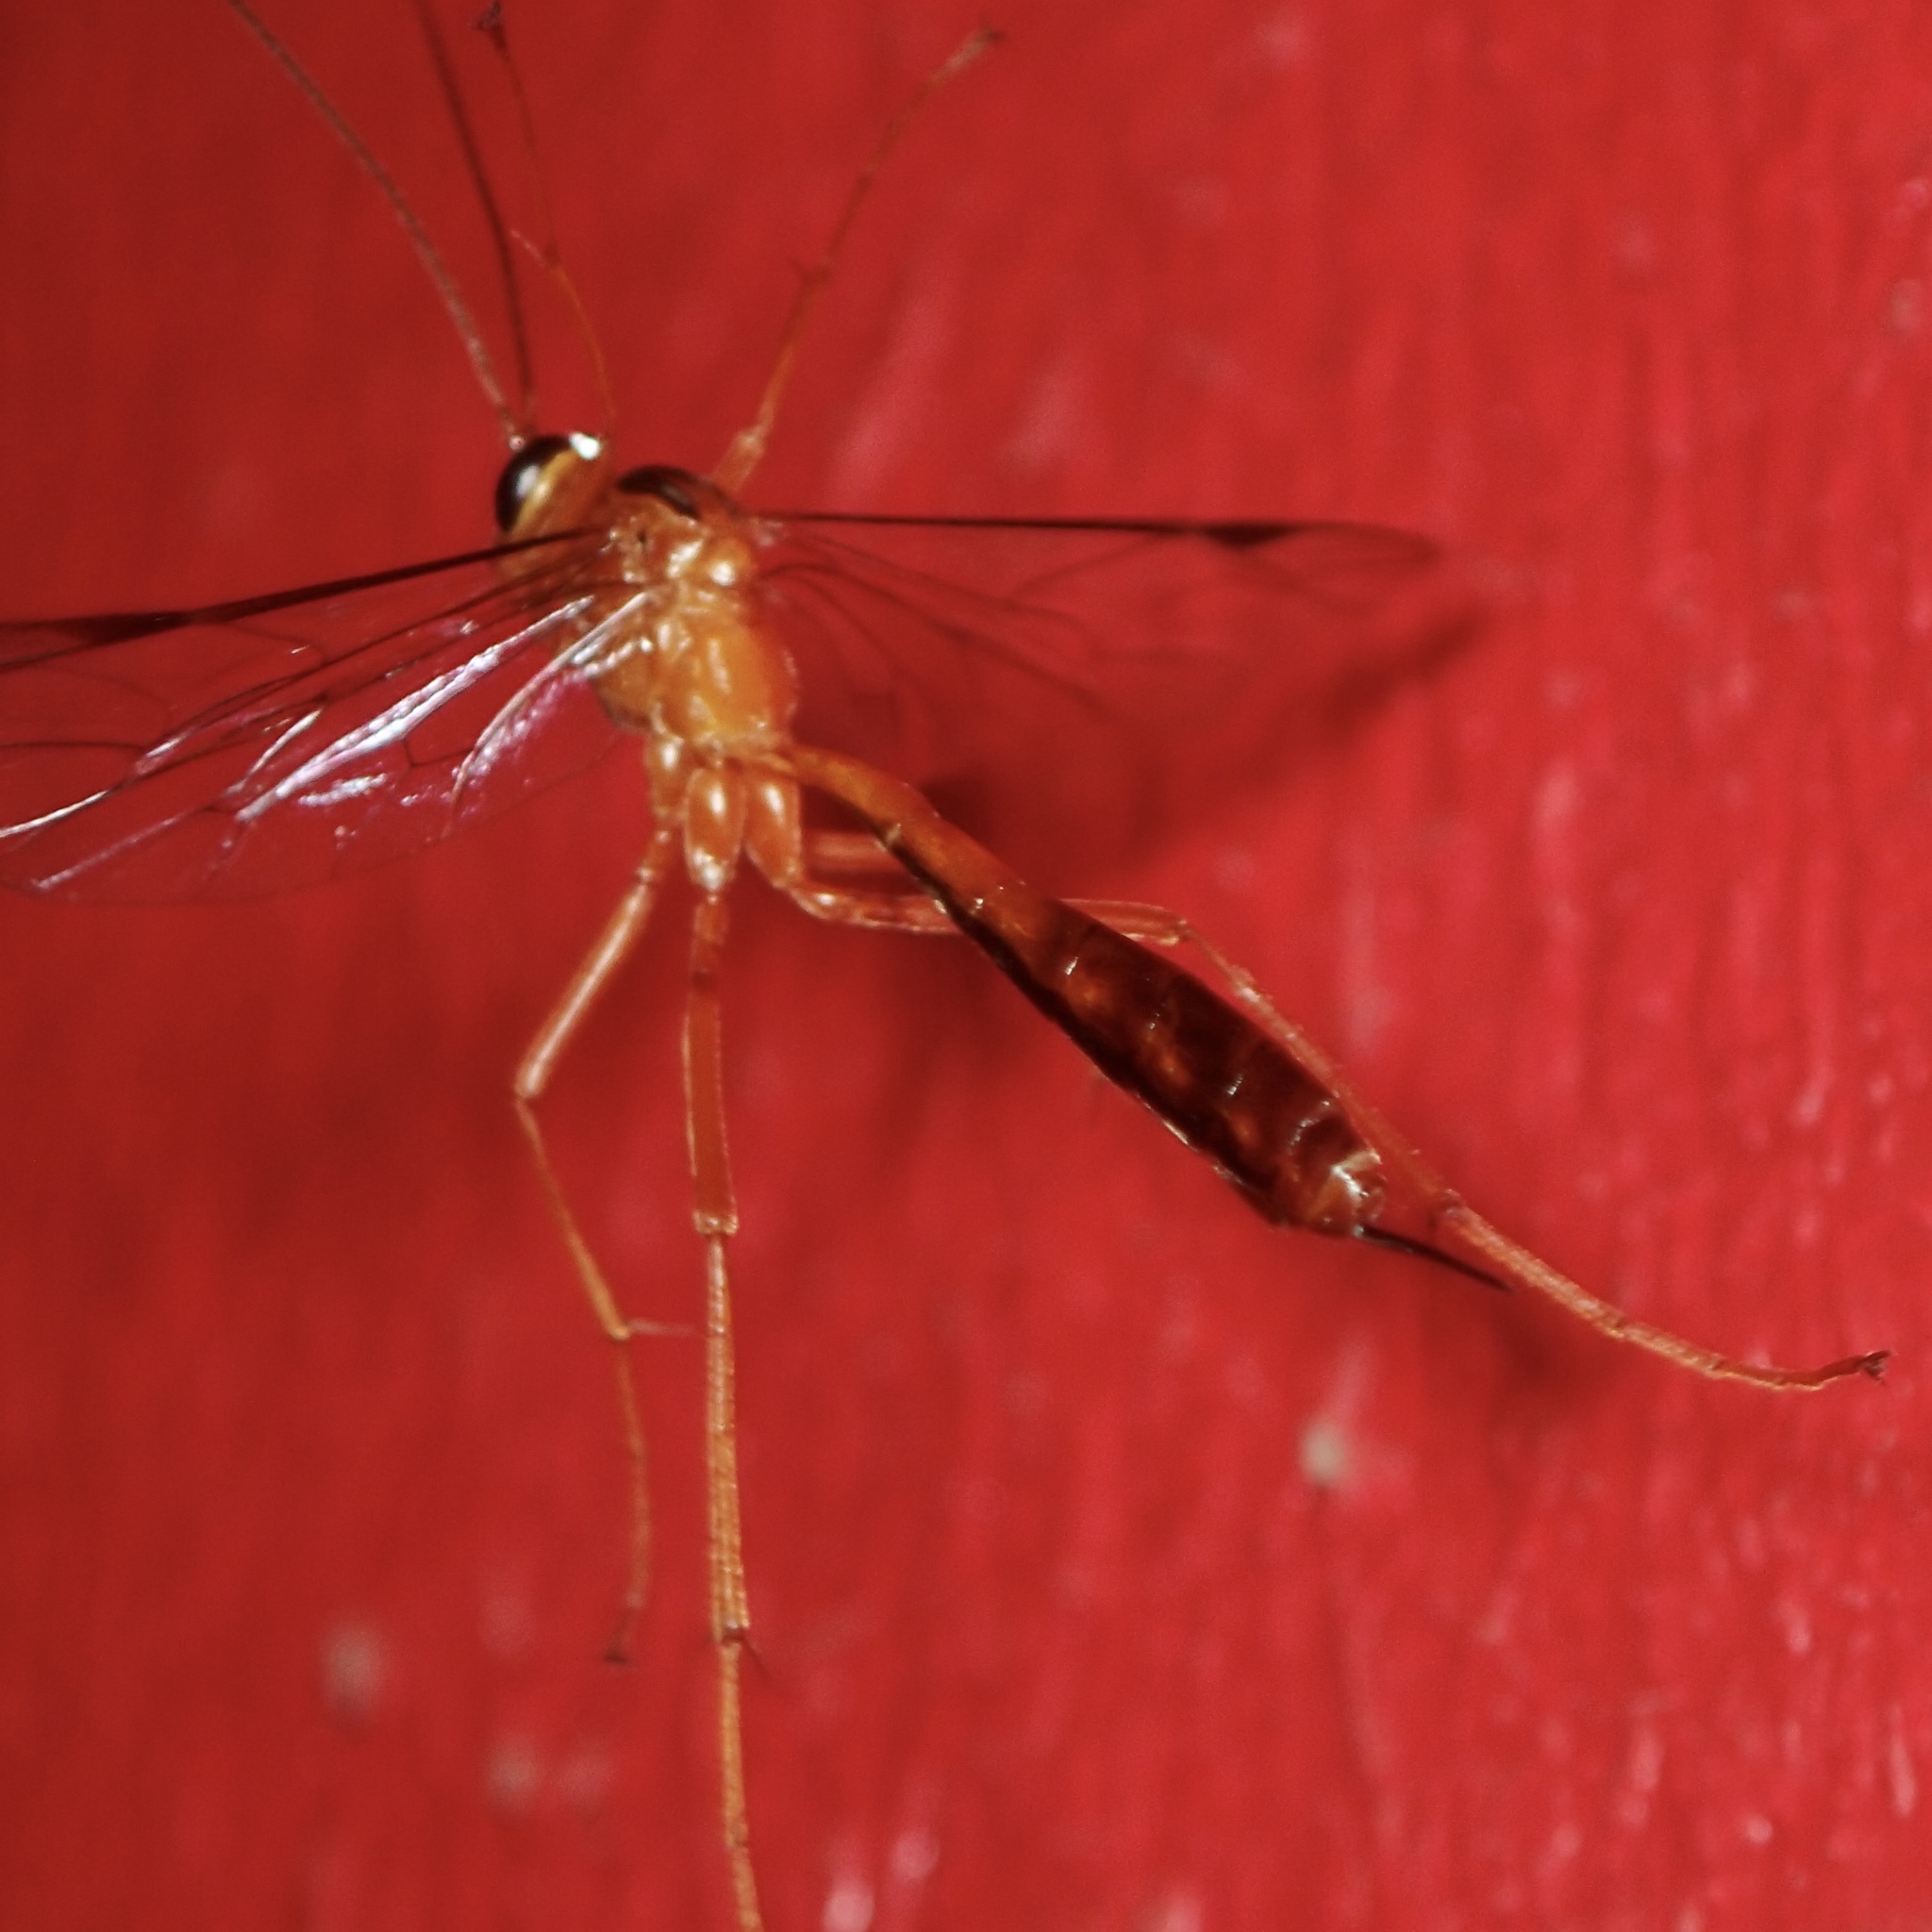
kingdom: Animalia
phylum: Arthropoda
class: Insecta
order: Hymenoptera
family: Ichneumonidae
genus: Netelia
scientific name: Netelia ephippiata
